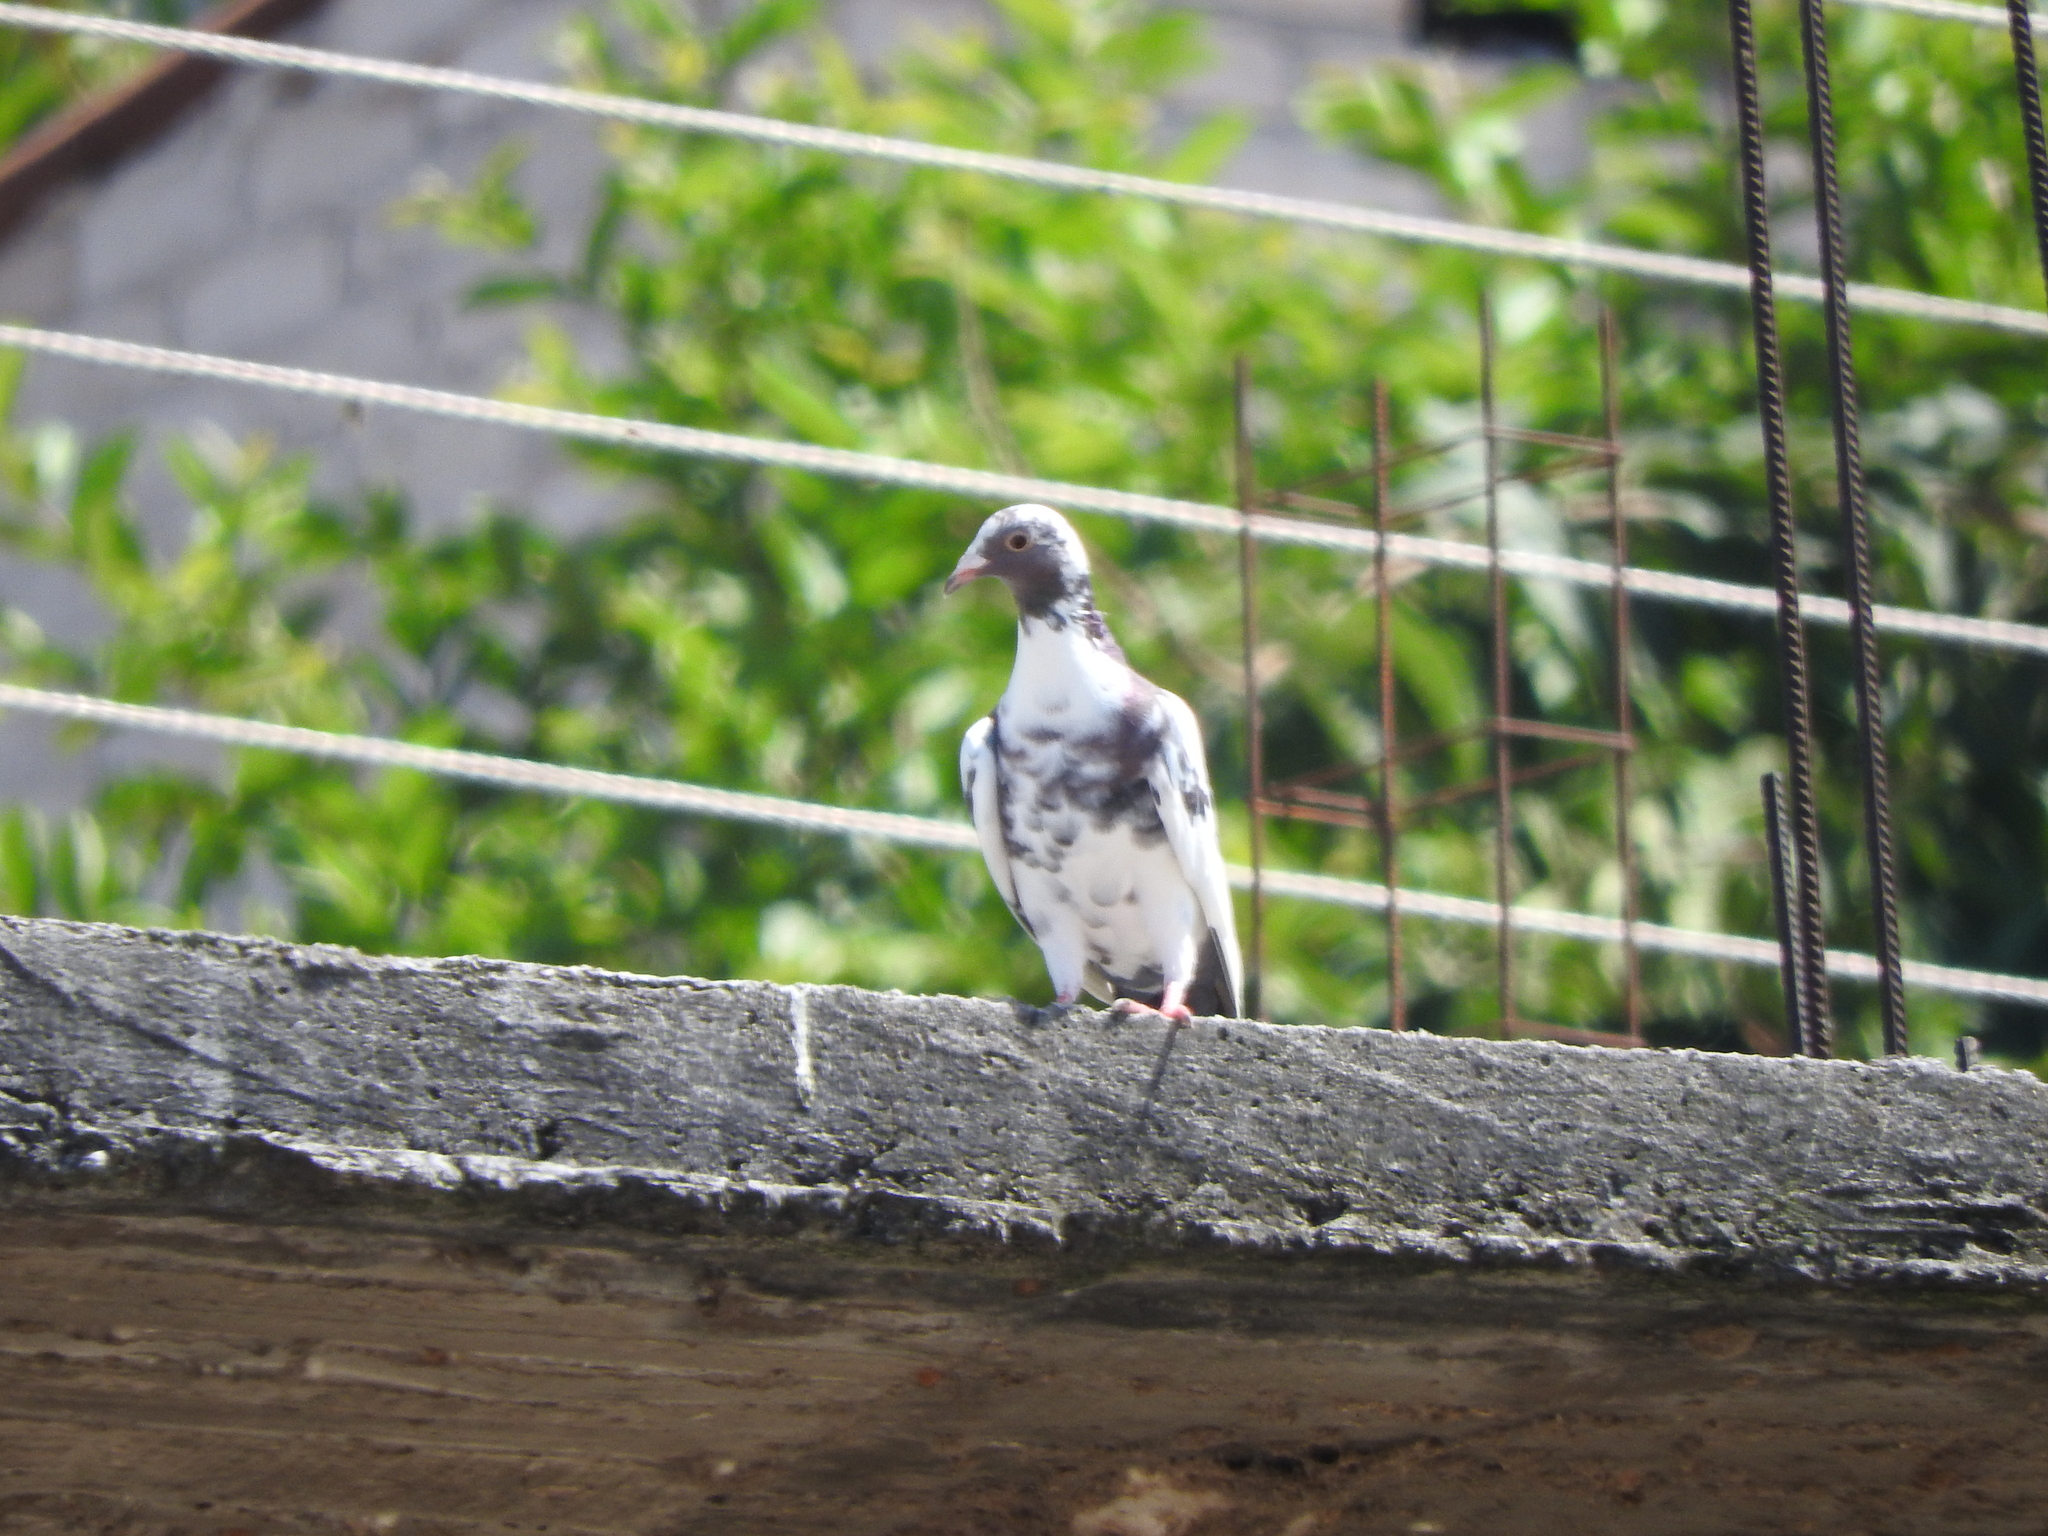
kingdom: Animalia
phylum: Chordata
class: Aves
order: Columbiformes
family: Columbidae
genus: Columba
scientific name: Columba livia
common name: Rock pigeon
